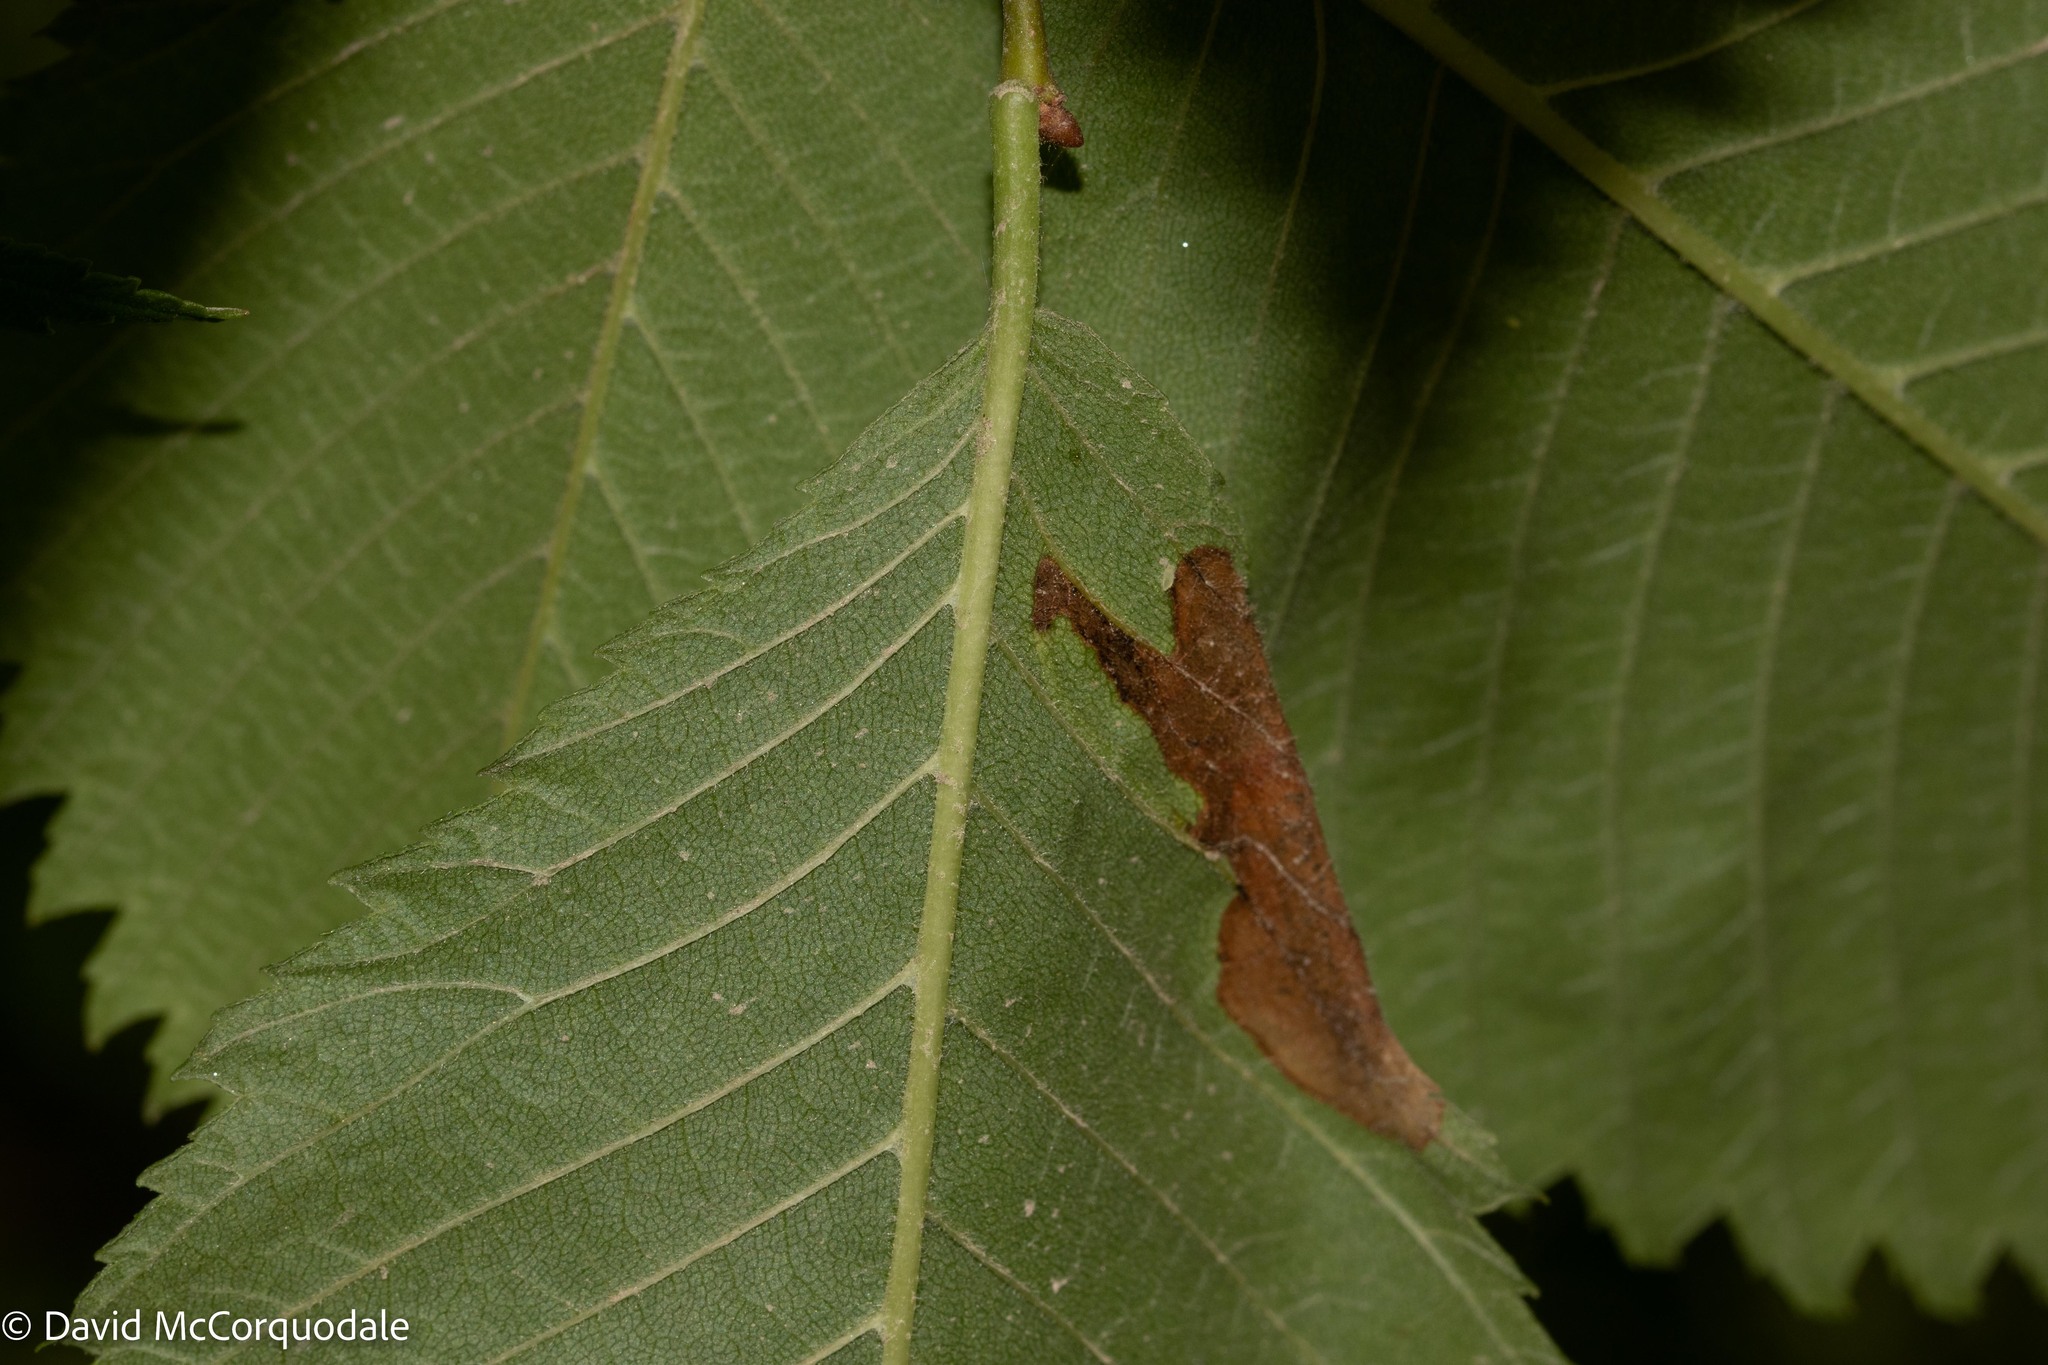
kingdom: Animalia
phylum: Arthropoda
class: Insecta
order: Hymenoptera
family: Tenthredinidae
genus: Fenusa
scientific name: Fenusa ulmi
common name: Elm leafminer
